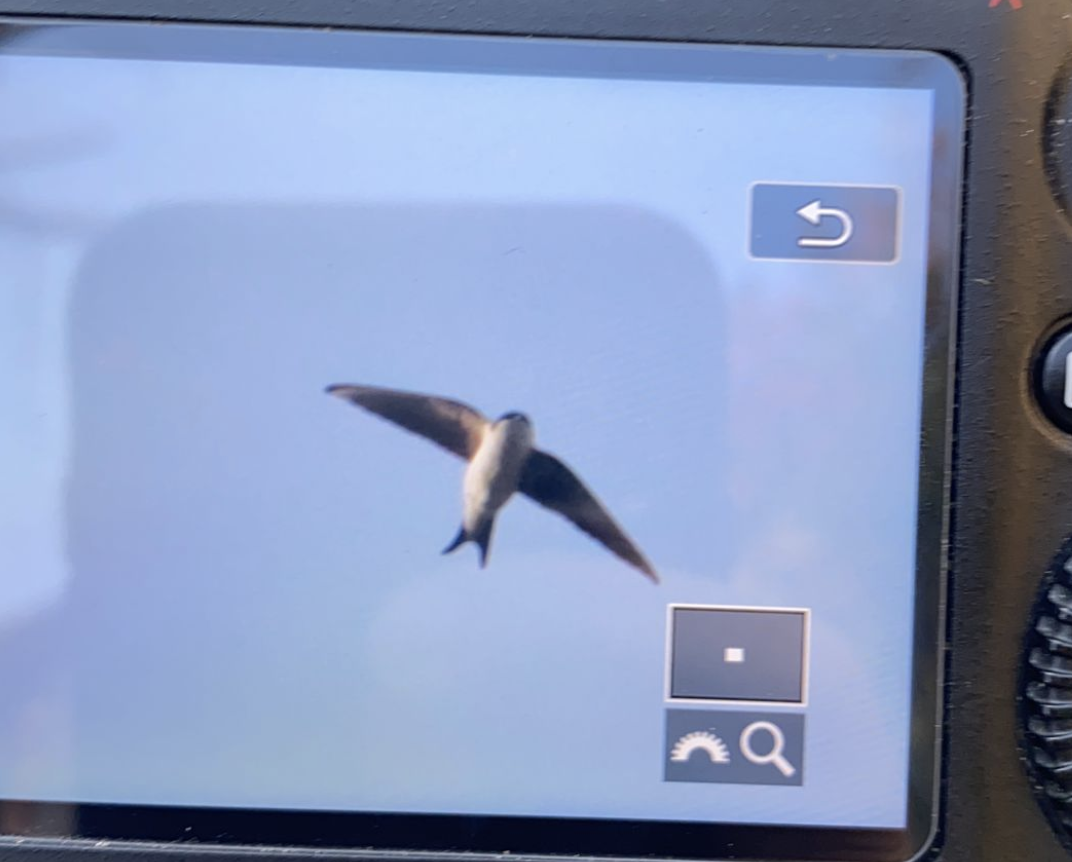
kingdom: Animalia
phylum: Chordata
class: Aves
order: Passeriformes
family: Hirundinidae
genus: Delichon
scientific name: Delichon urbicum
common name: Common house martin
